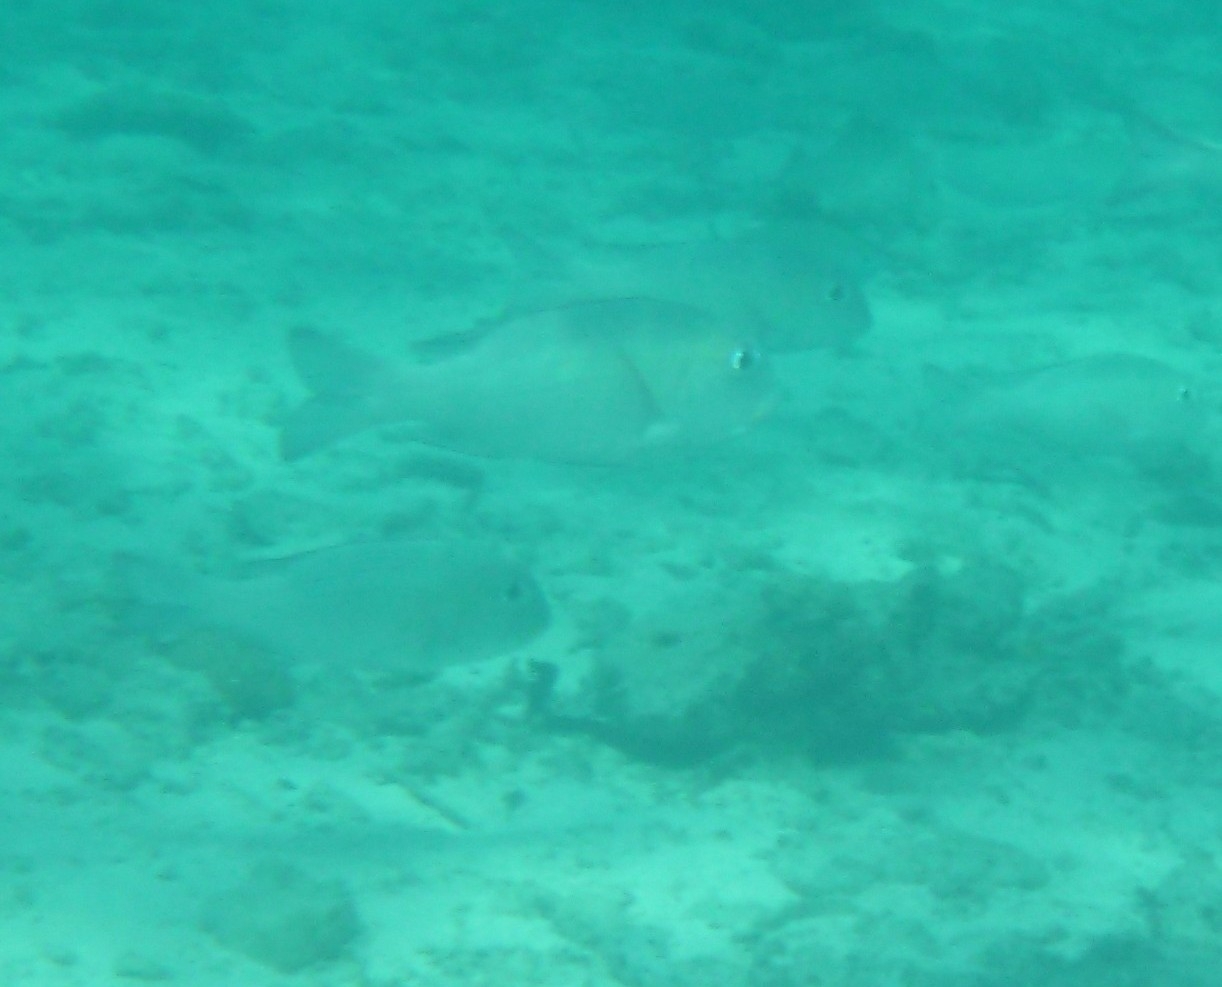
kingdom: Animalia
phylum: Chordata
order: Perciformes
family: Lethrinidae
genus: Monotaxis
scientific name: Monotaxis grandoculis
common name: Bigeye emperor
